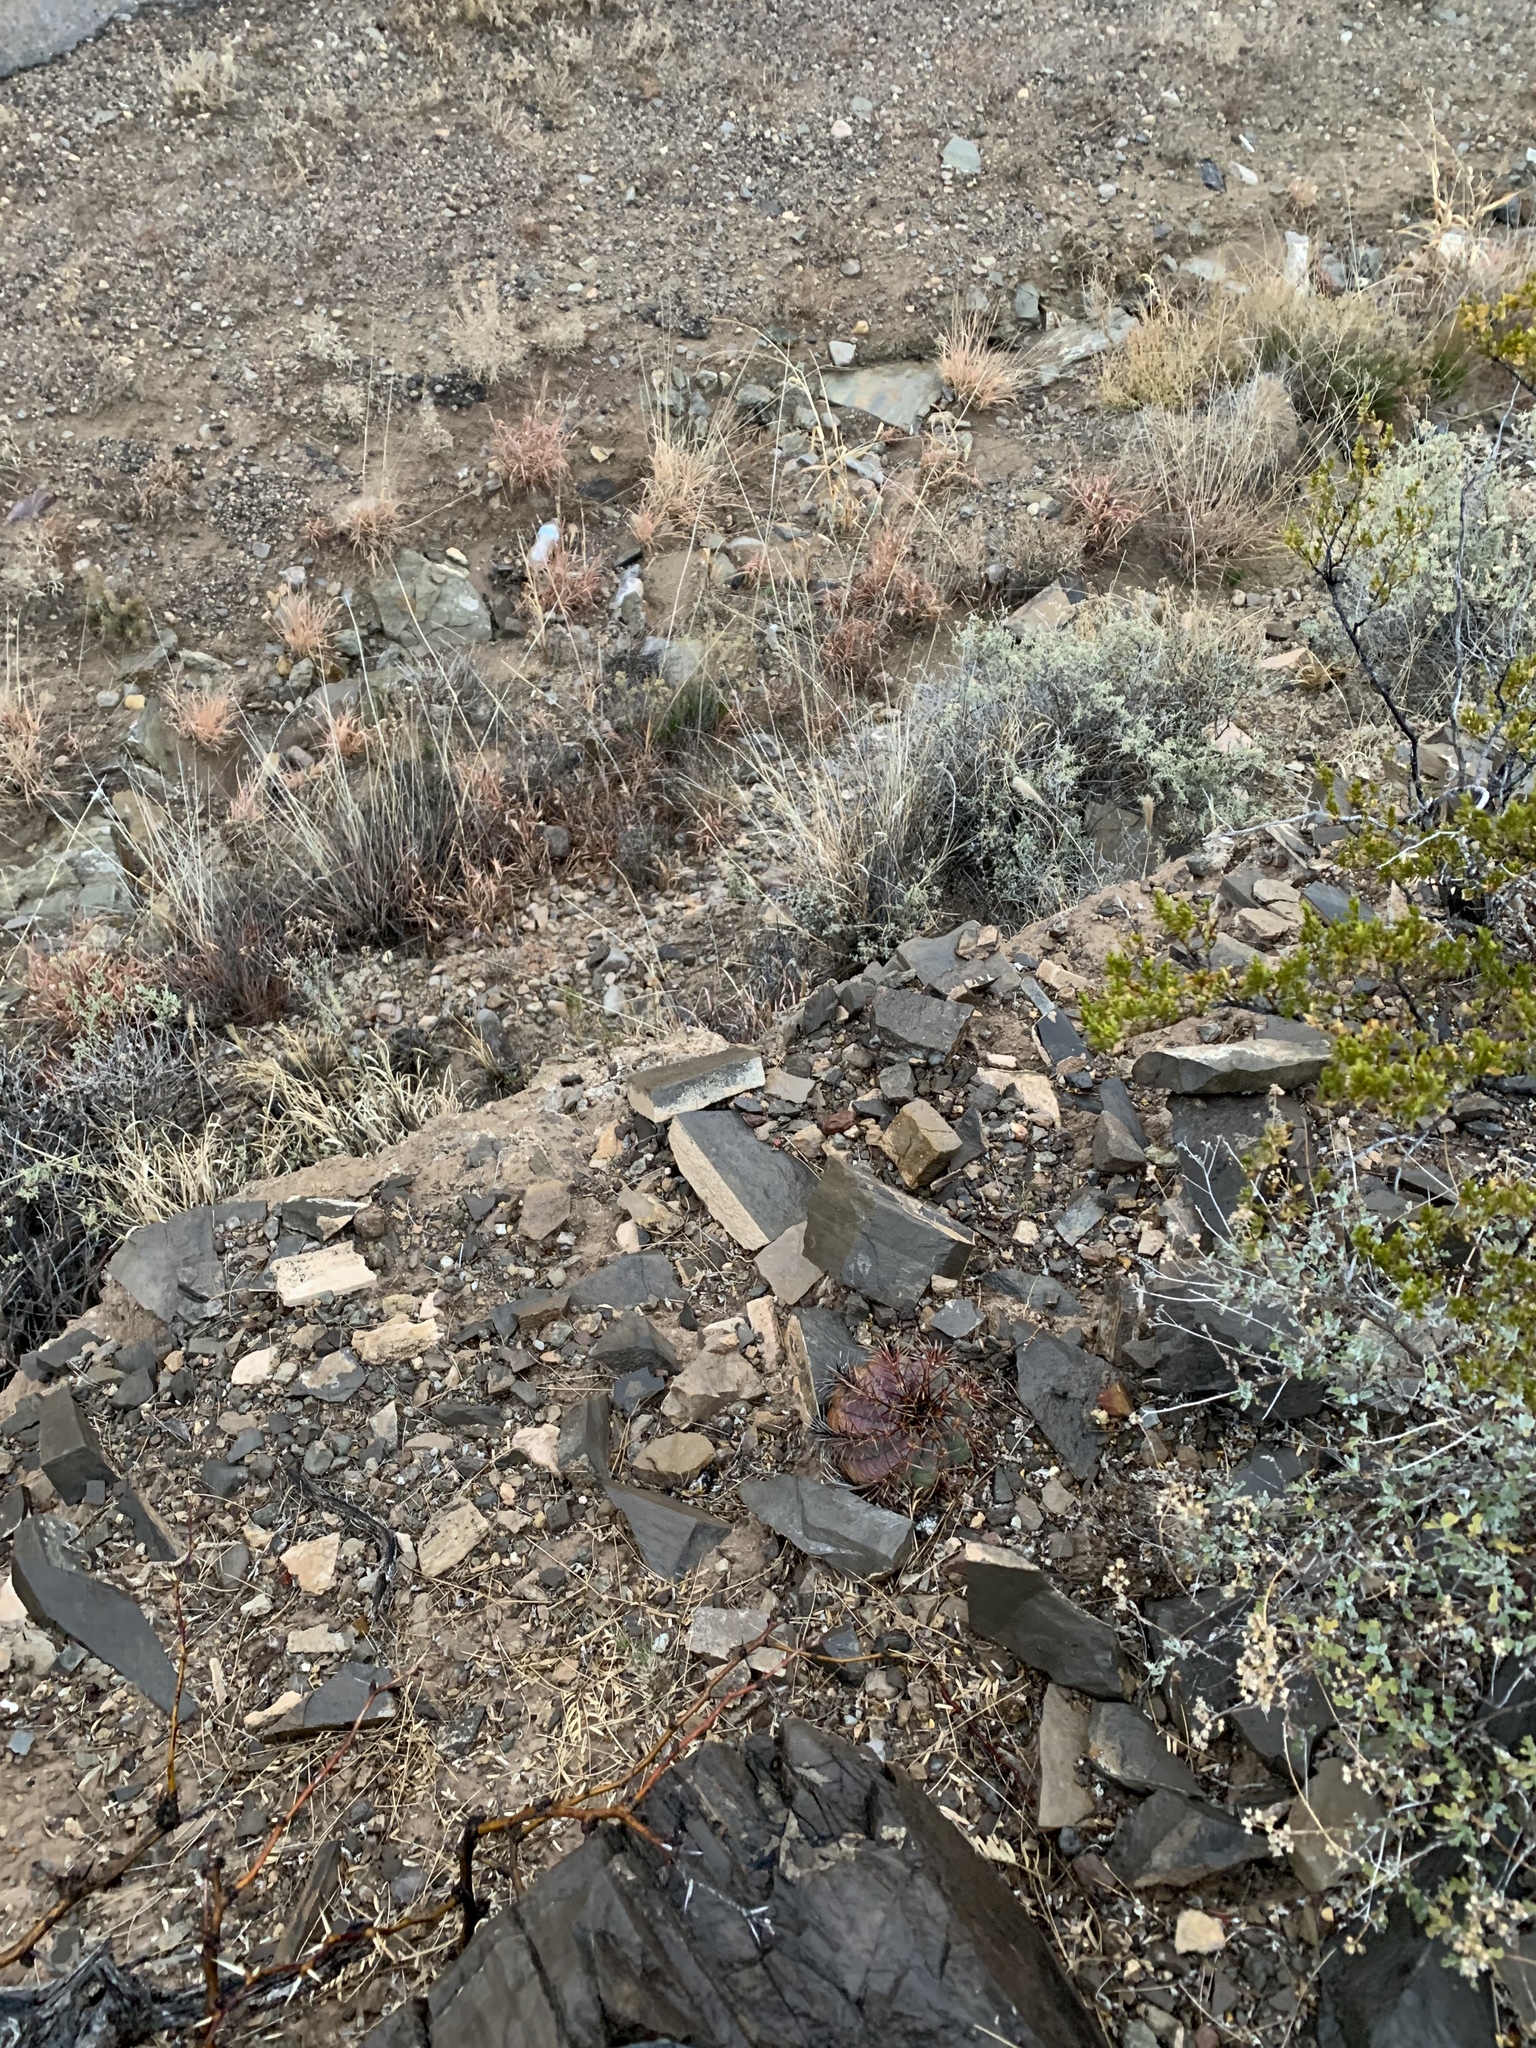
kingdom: Plantae
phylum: Tracheophyta
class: Magnoliopsida
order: Caryophyllales
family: Cactaceae
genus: Echinocactus
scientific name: Echinocactus horizonthalonius
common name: Devilshead
